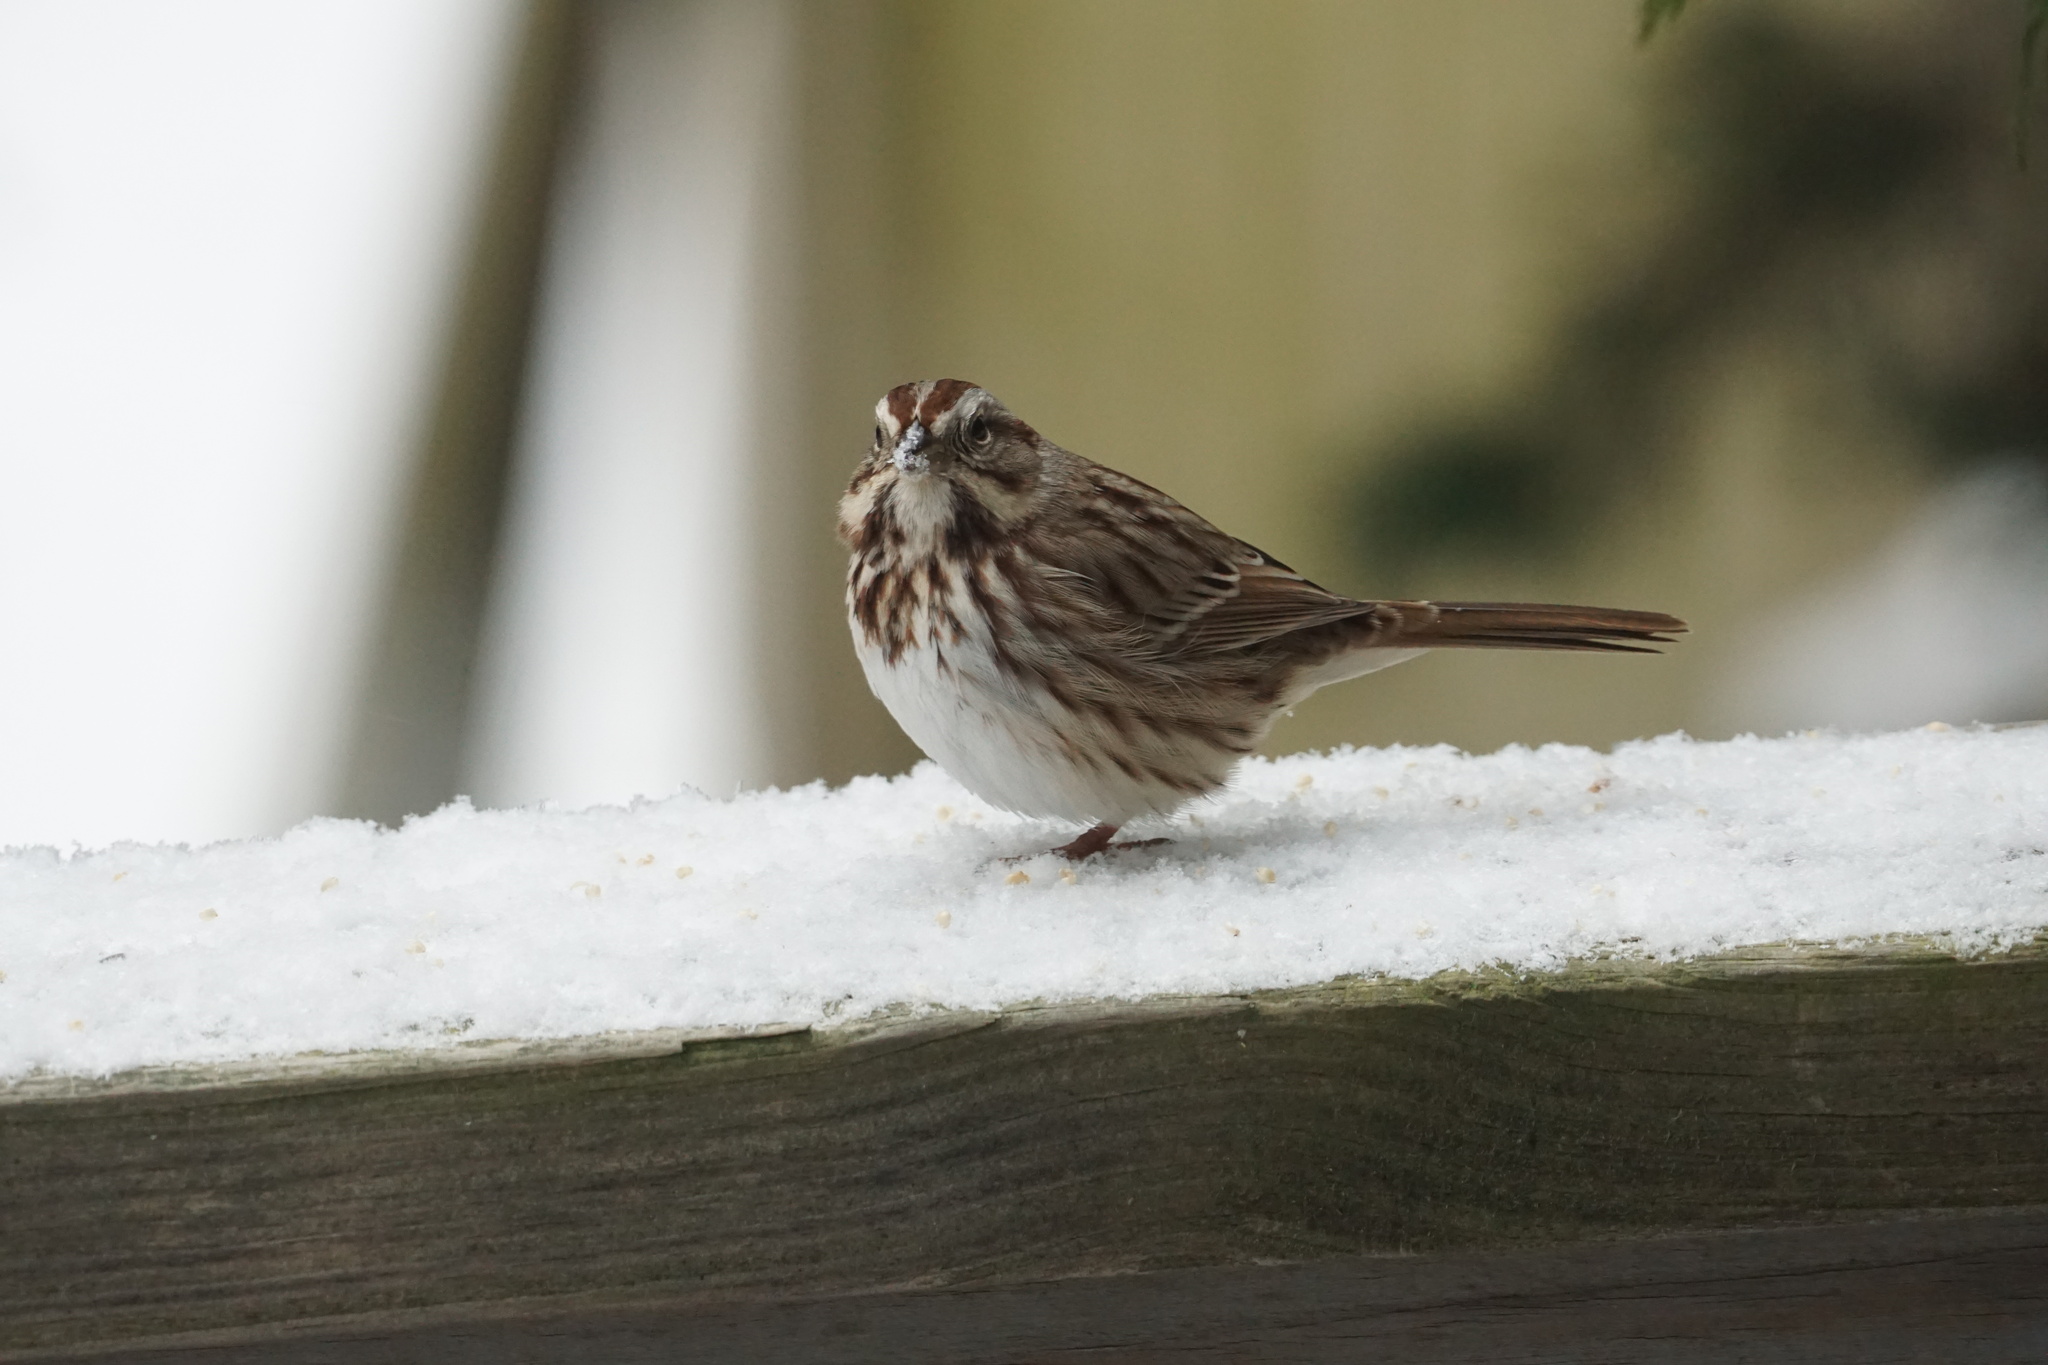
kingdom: Animalia
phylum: Chordata
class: Aves
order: Passeriformes
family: Passerellidae
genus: Melospiza
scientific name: Melospiza melodia
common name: Song sparrow
